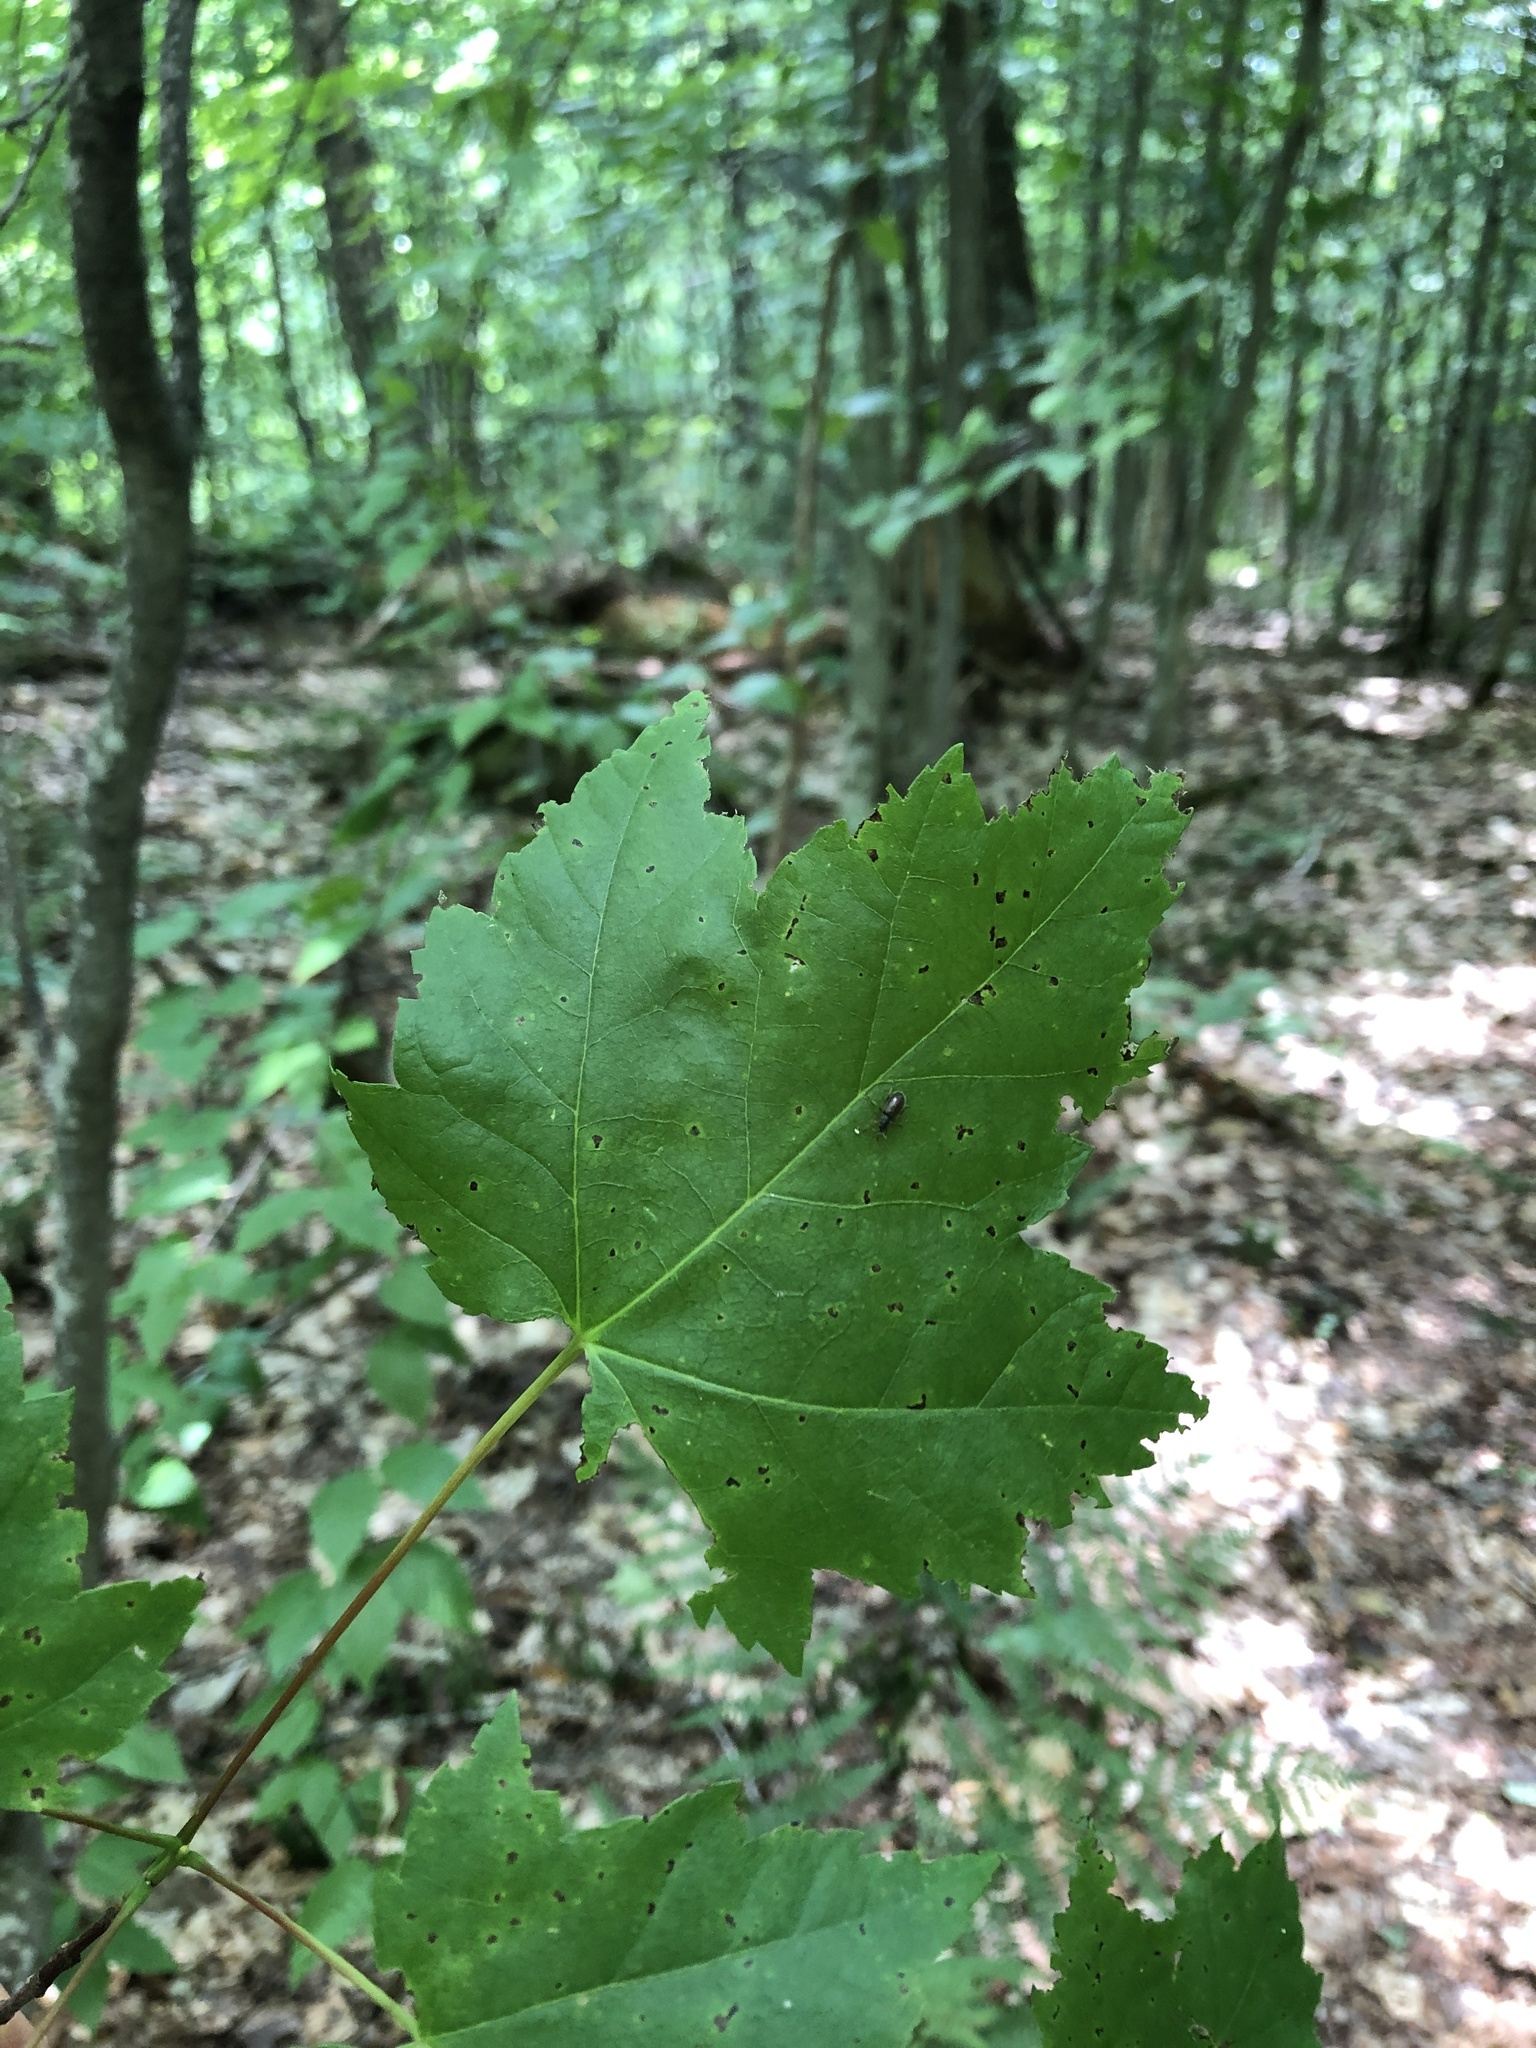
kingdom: Plantae
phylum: Tracheophyta
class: Magnoliopsida
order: Sapindales
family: Sapindaceae
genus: Acer
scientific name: Acer rubrum
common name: Red maple
